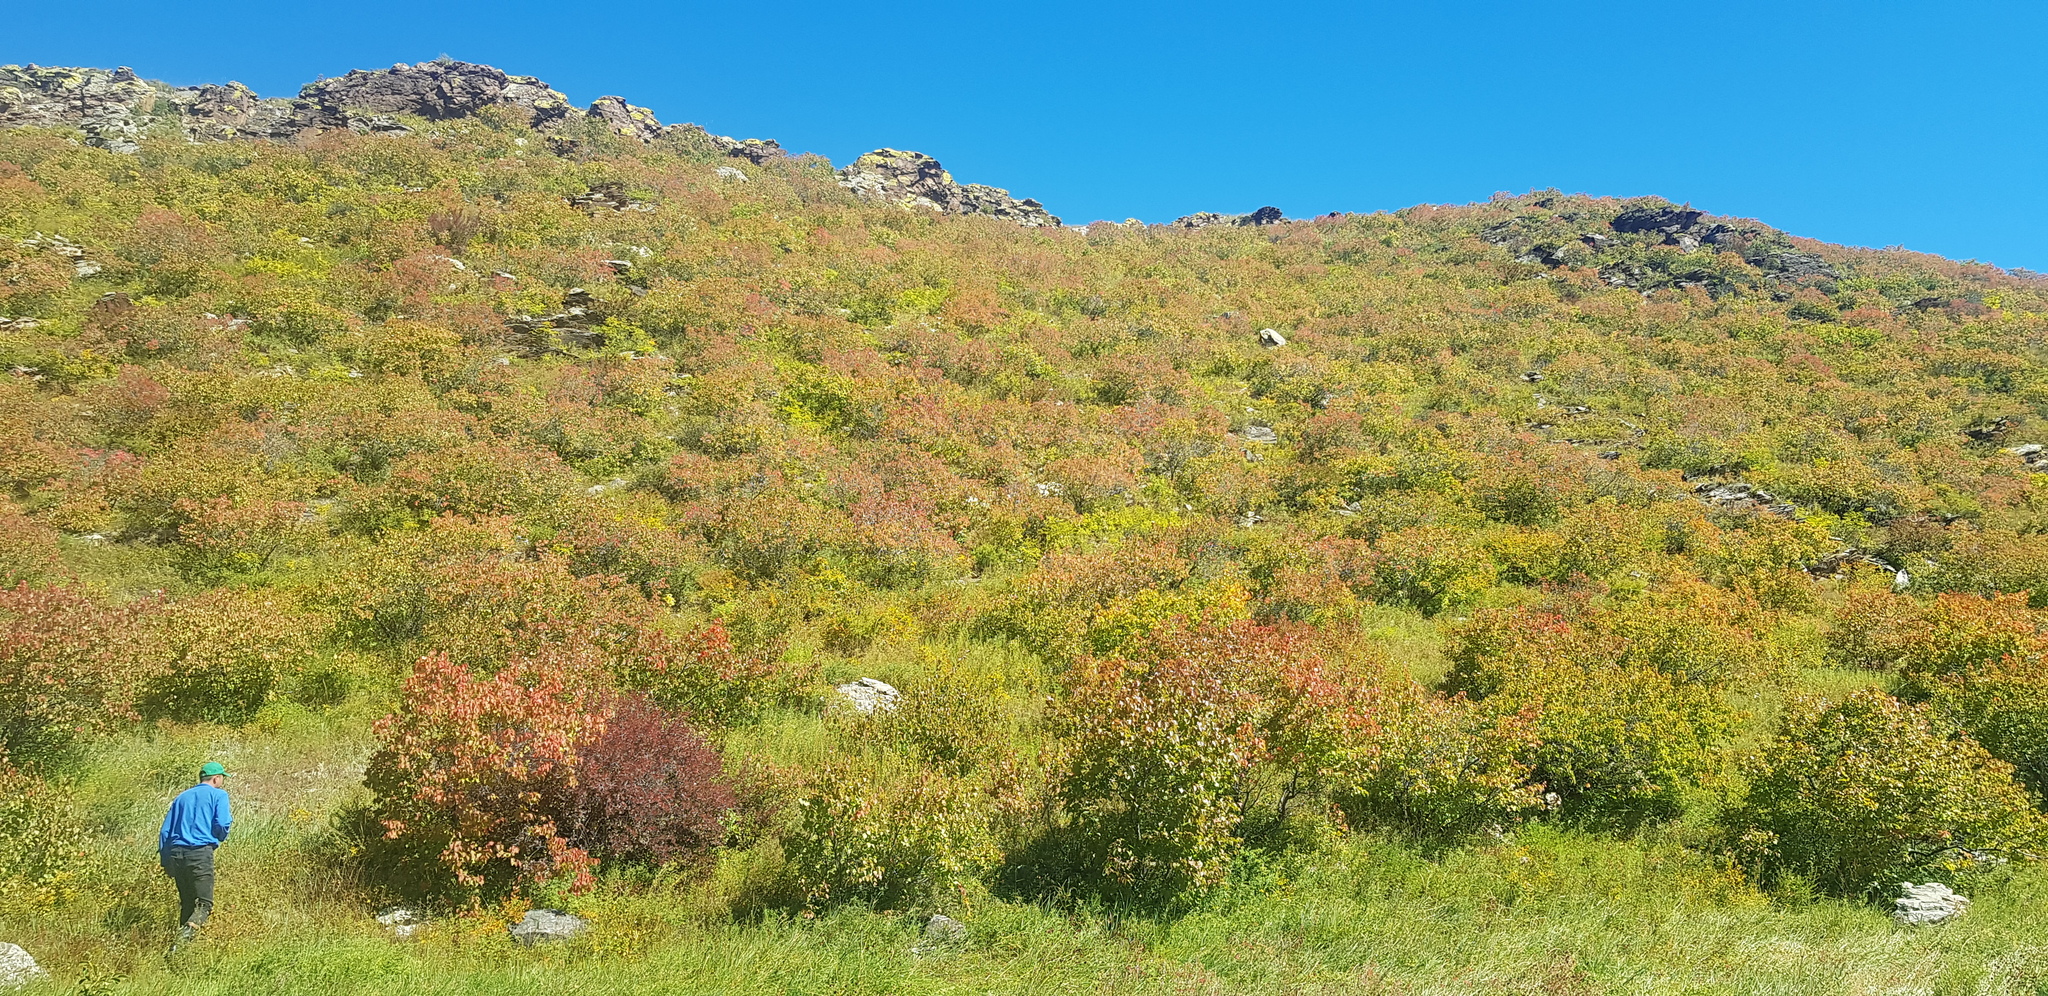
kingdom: Plantae
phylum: Tracheophyta
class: Magnoliopsida
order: Rosales
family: Rosaceae
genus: Prunus
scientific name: Prunus sibirica
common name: Siberian apricot
